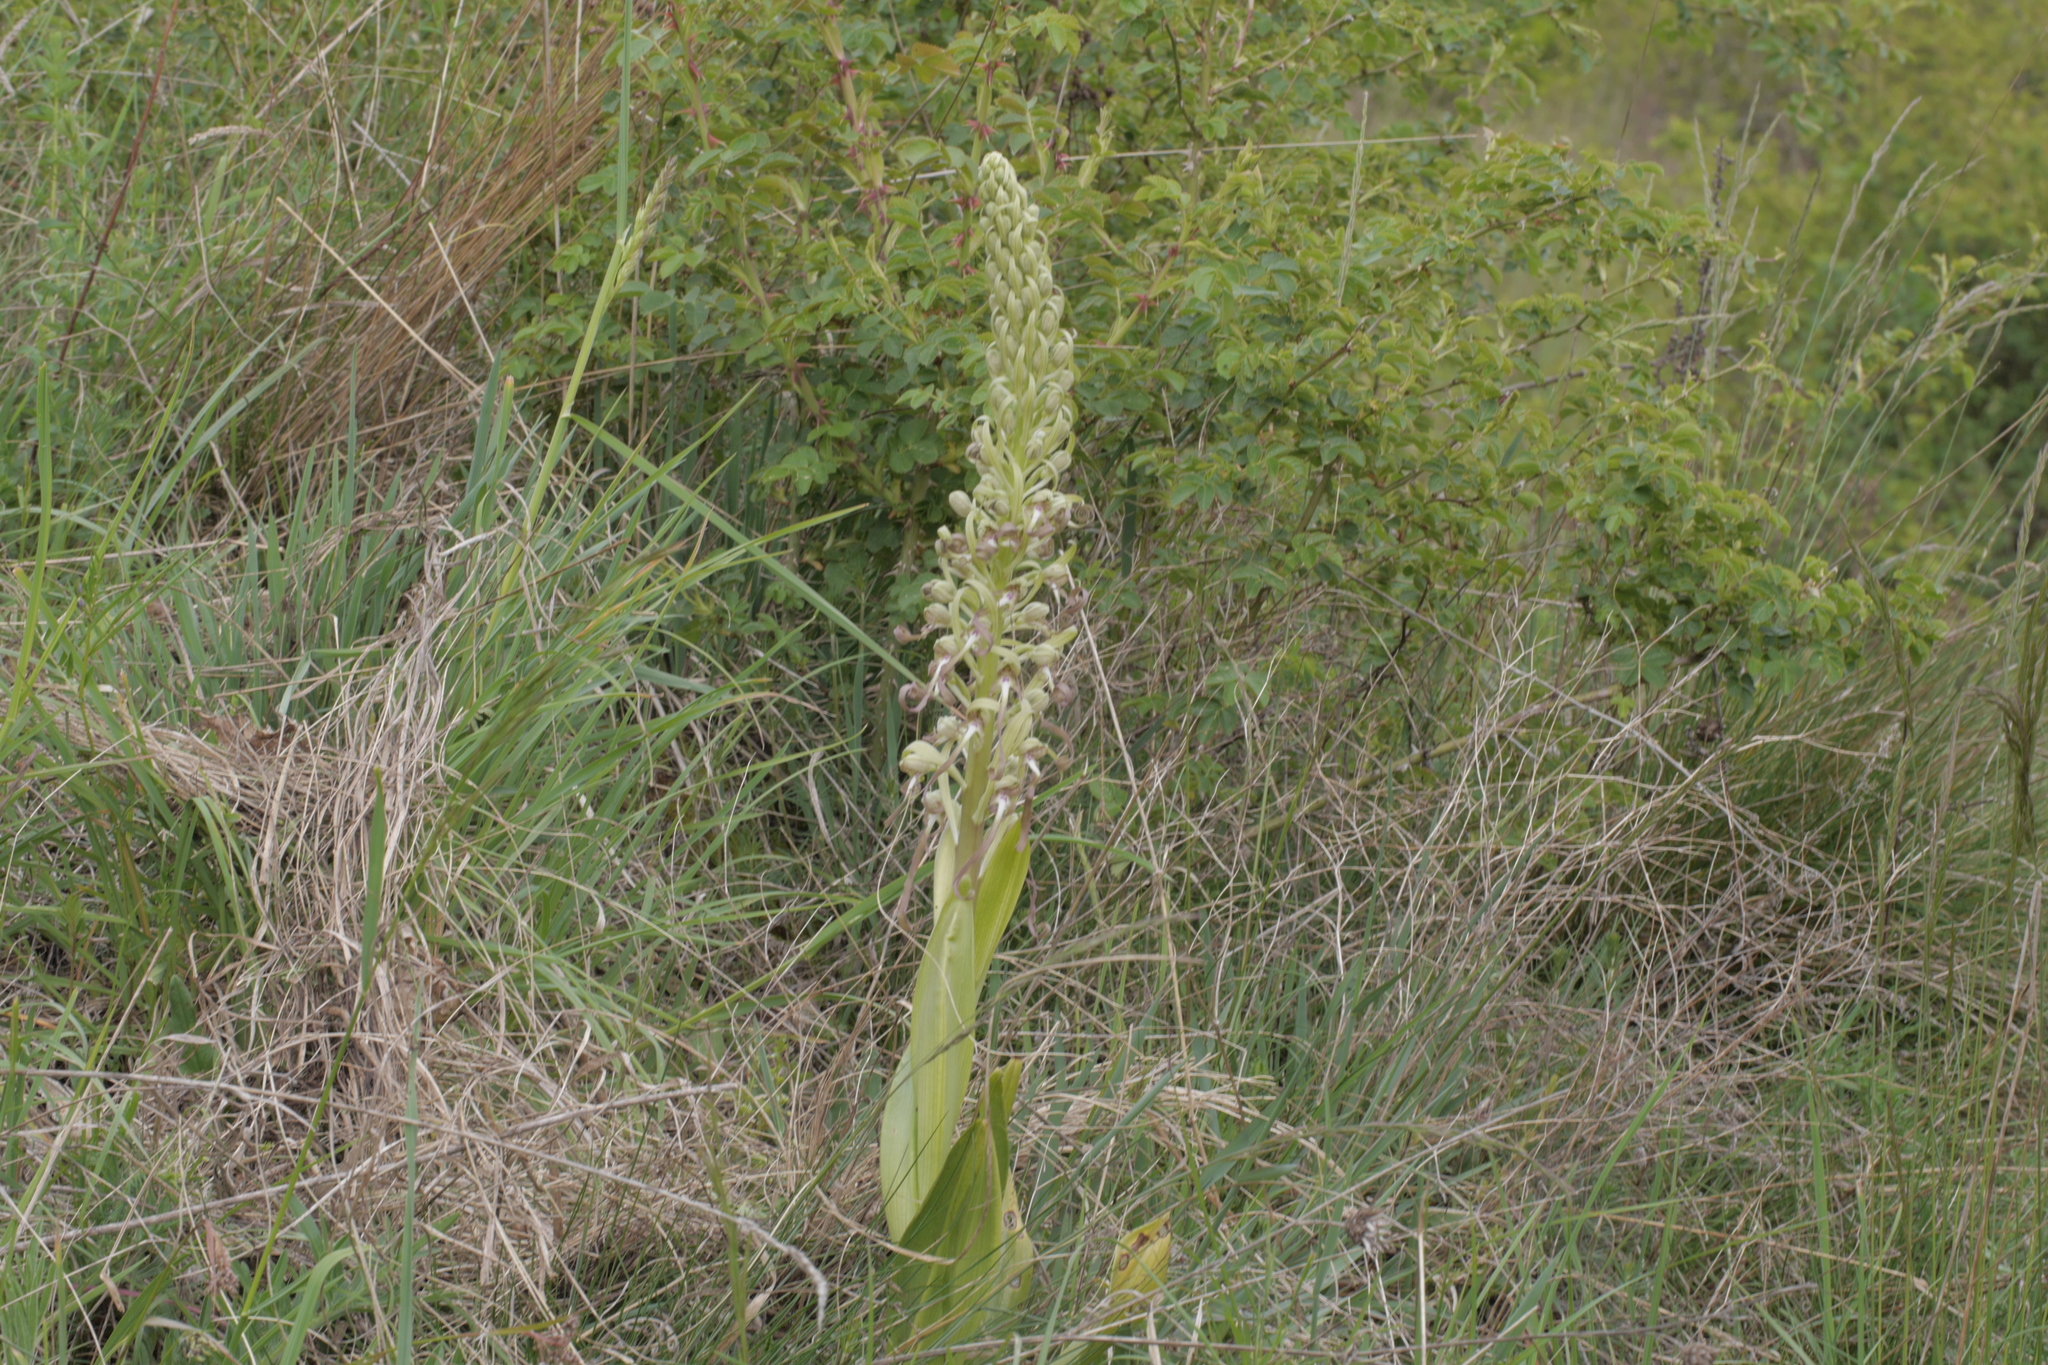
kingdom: Plantae
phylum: Tracheophyta
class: Liliopsida
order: Asparagales
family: Orchidaceae
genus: Himantoglossum
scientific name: Himantoglossum hircinum
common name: Lizard orchid
